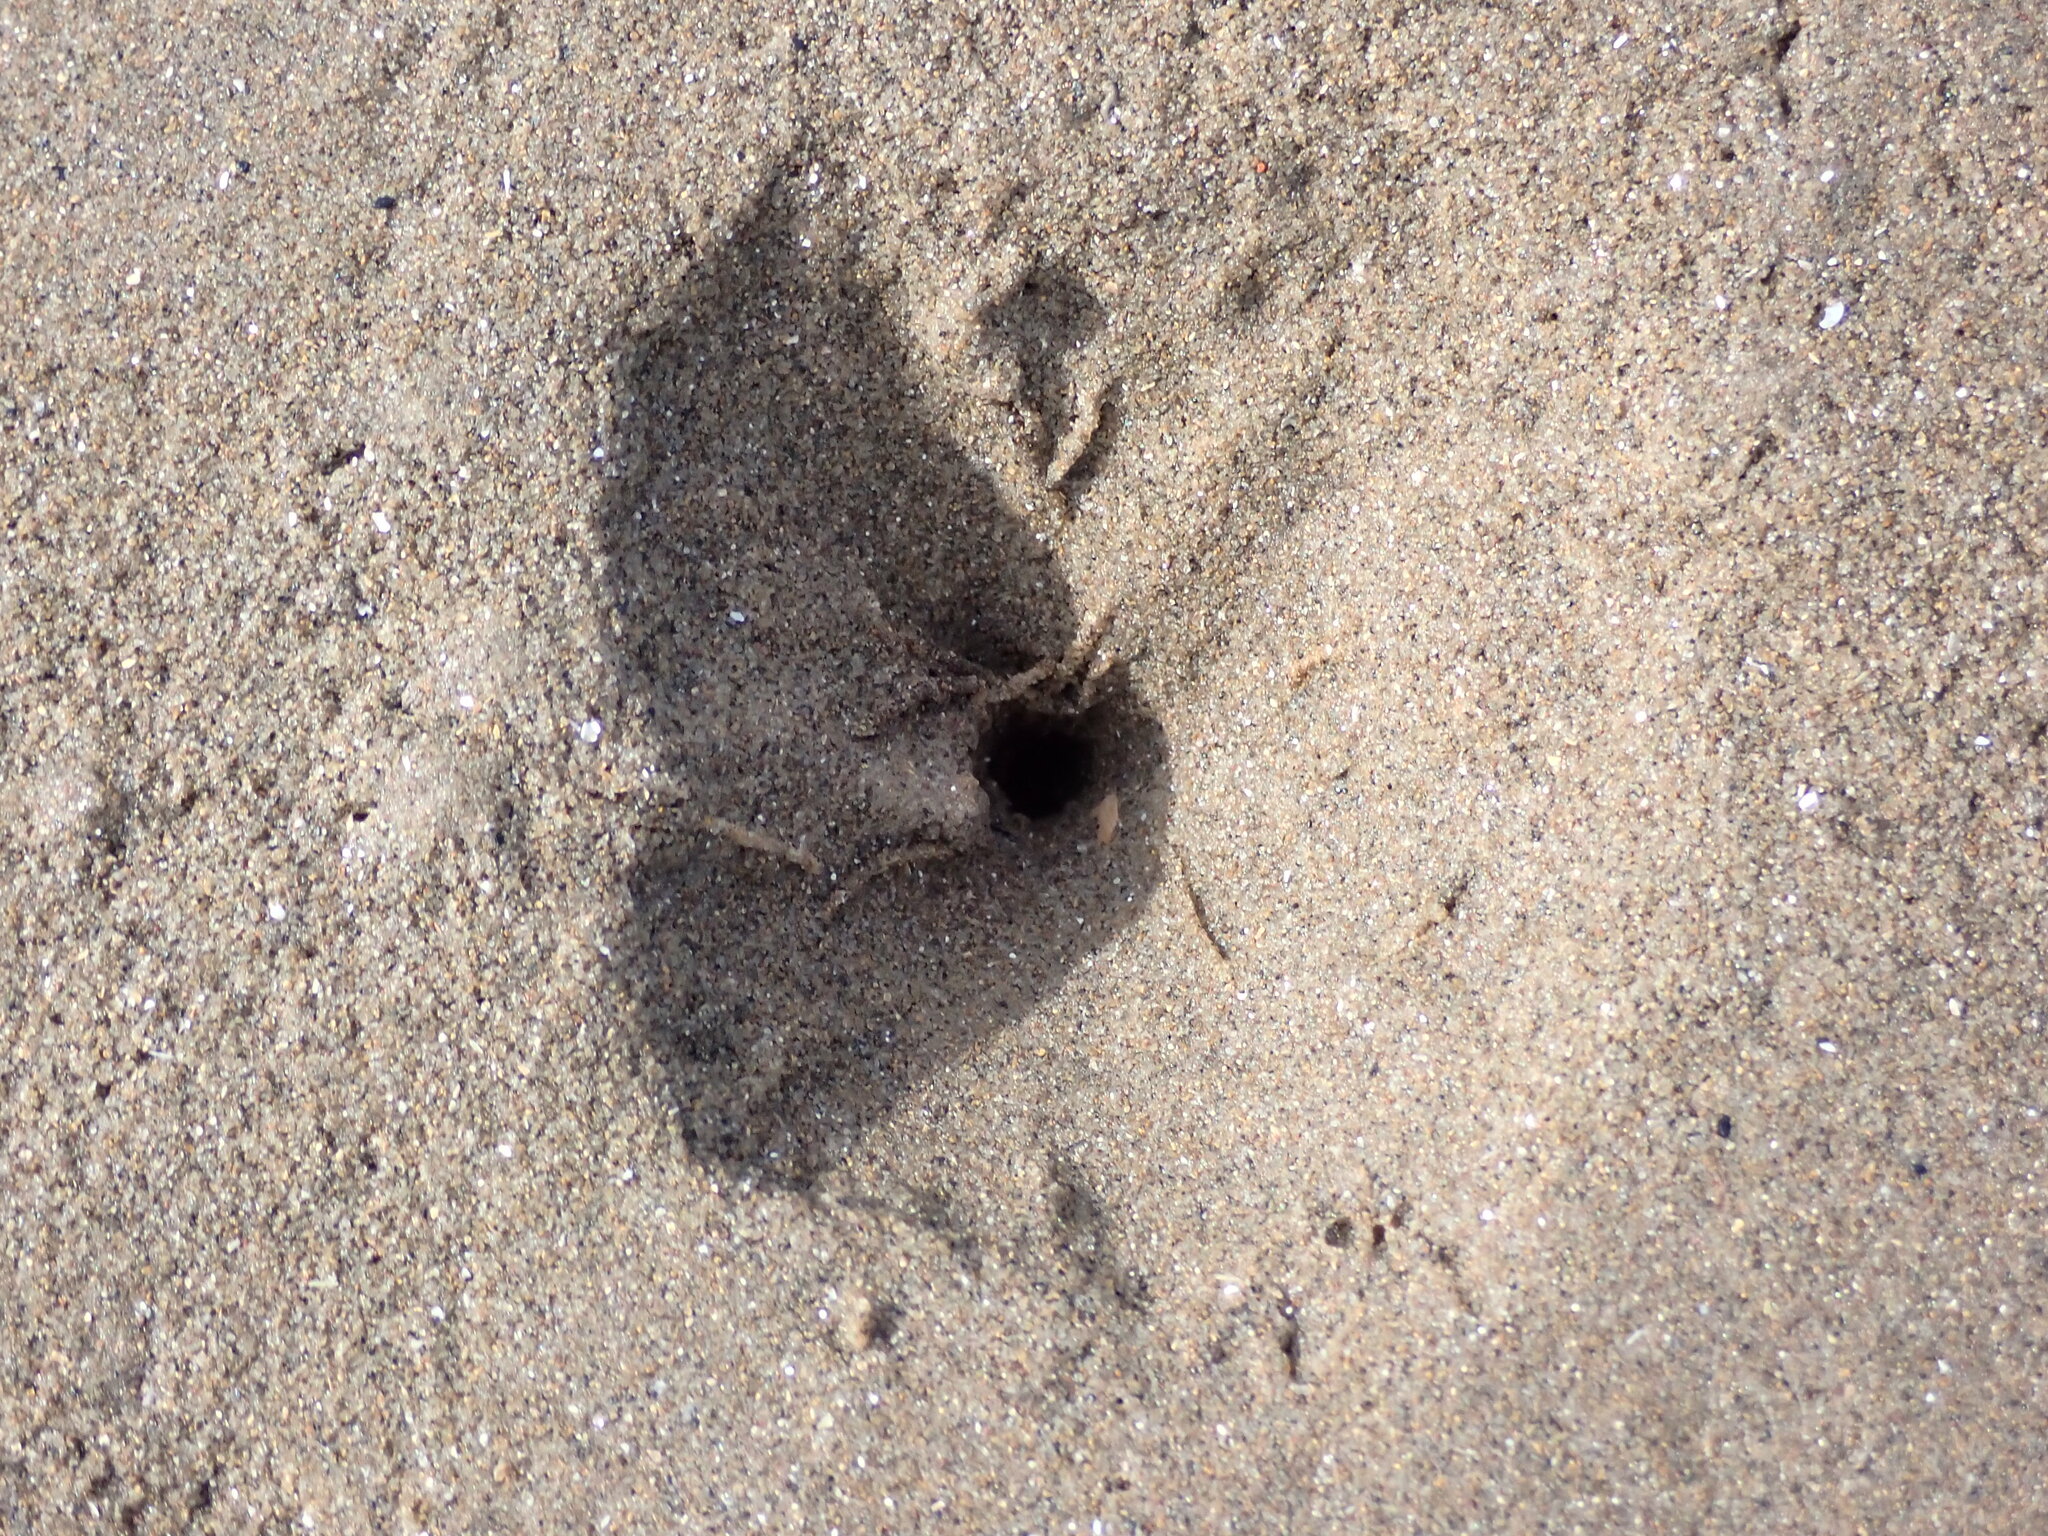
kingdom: Animalia
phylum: Annelida
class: Polychaeta
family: Arenicolidae
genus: Arenicola
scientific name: Arenicola marina
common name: Blow lugworm
